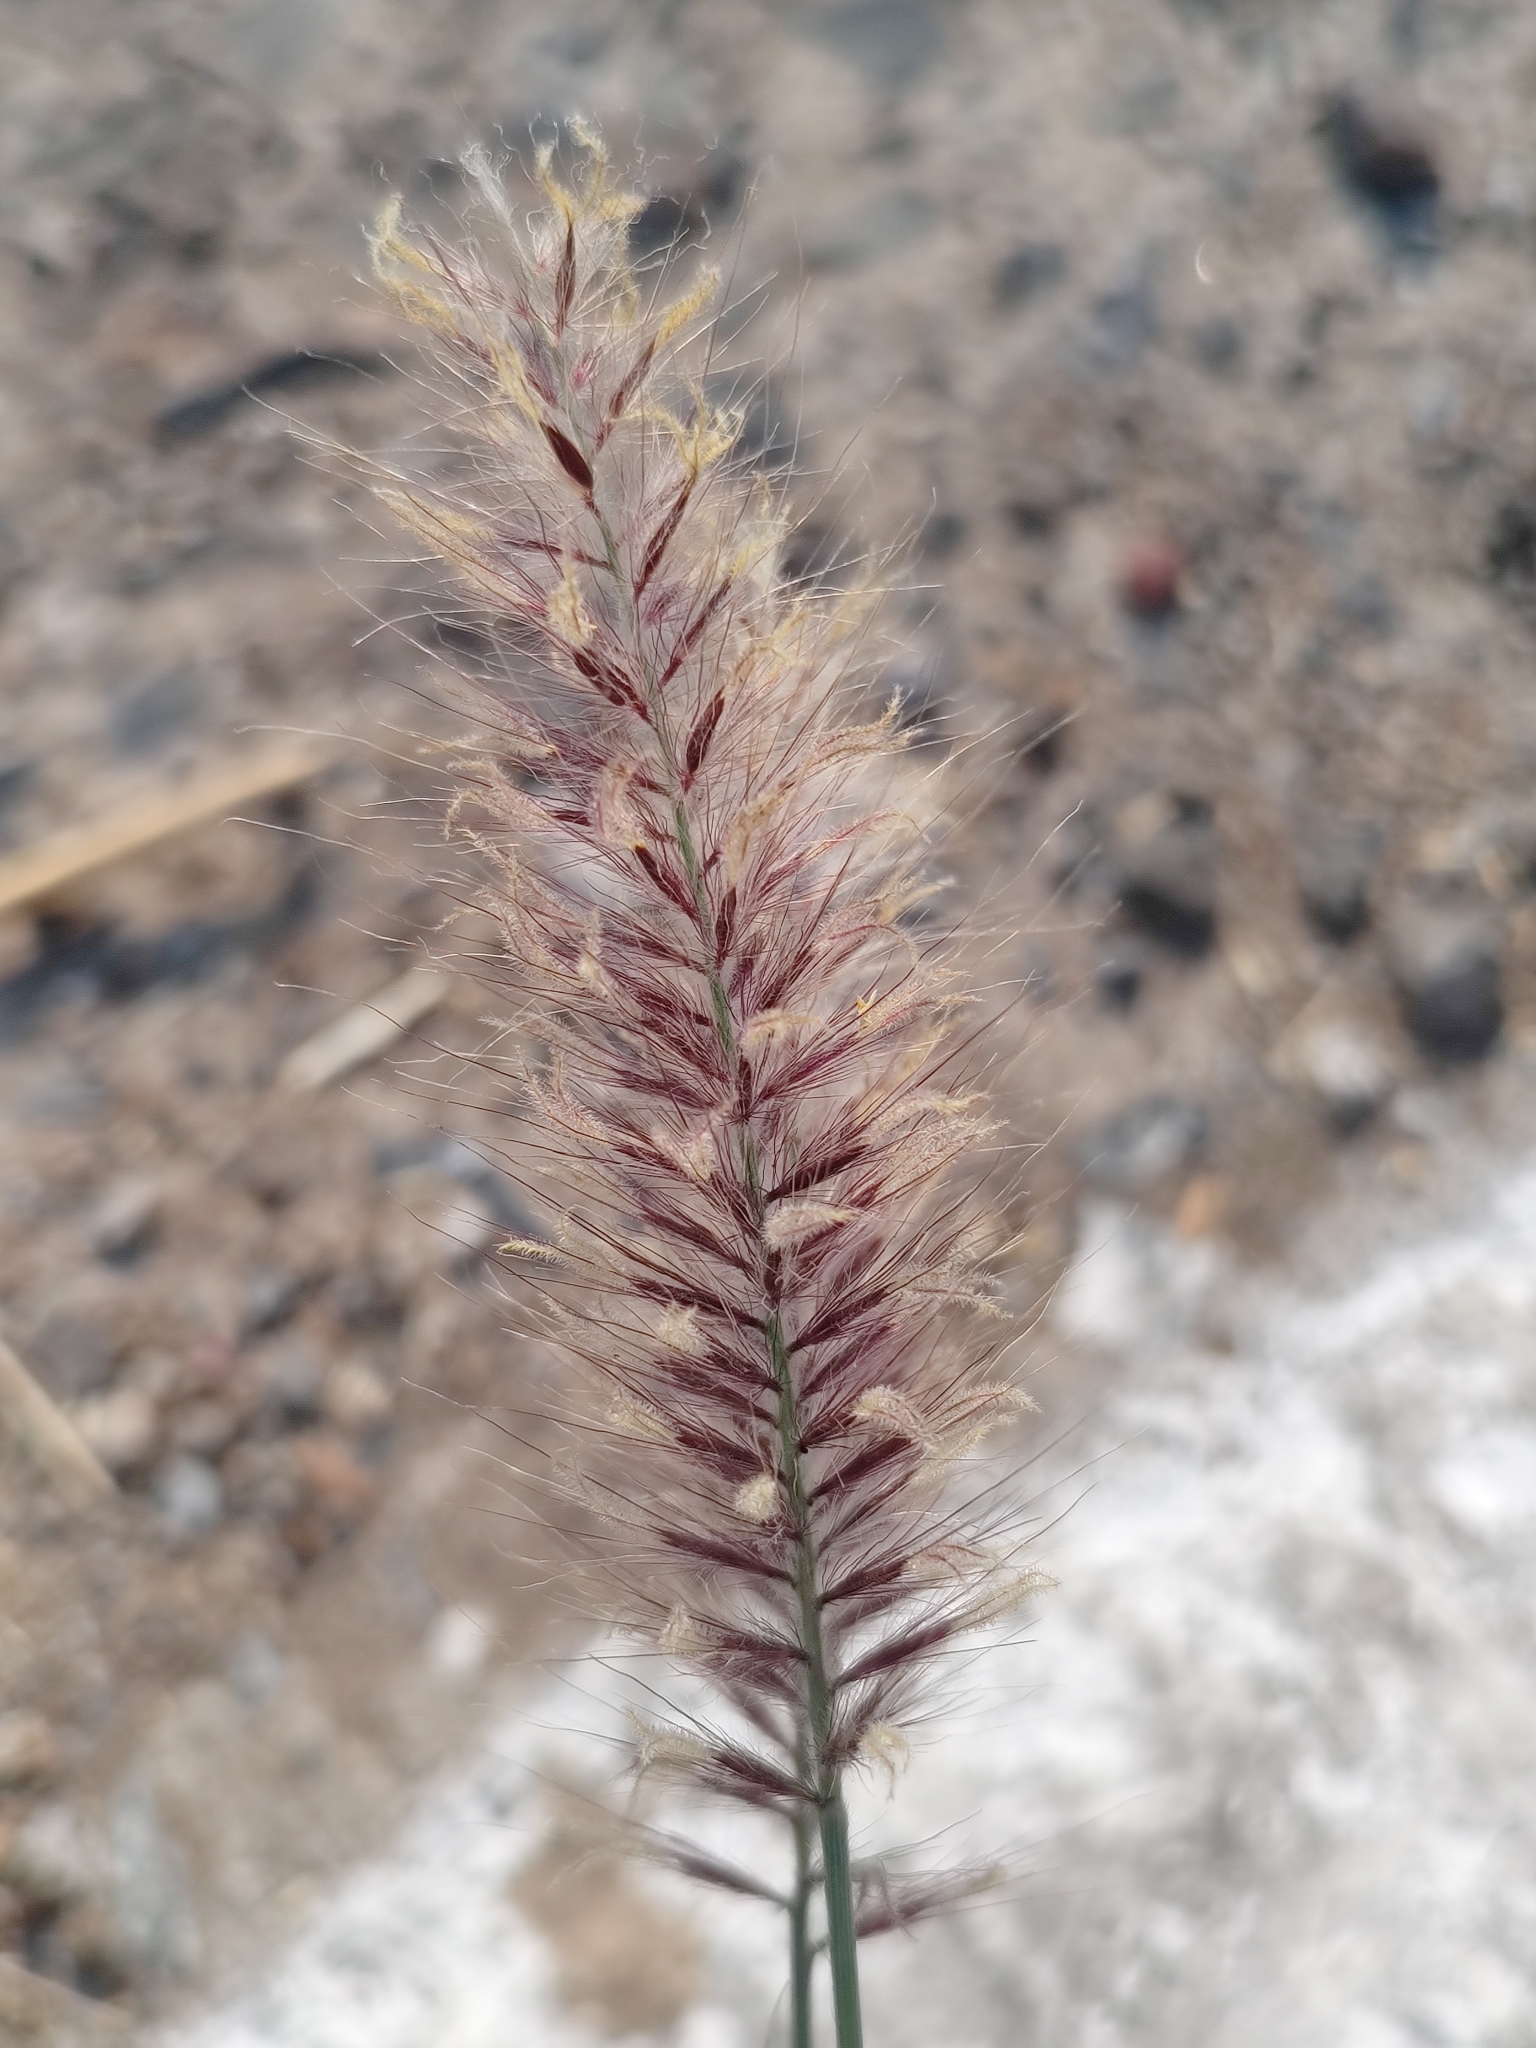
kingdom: Plantae
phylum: Tracheophyta
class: Liliopsida
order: Poales
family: Poaceae
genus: Cenchrus
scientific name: Cenchrus ciliaris
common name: Buffelgrass
